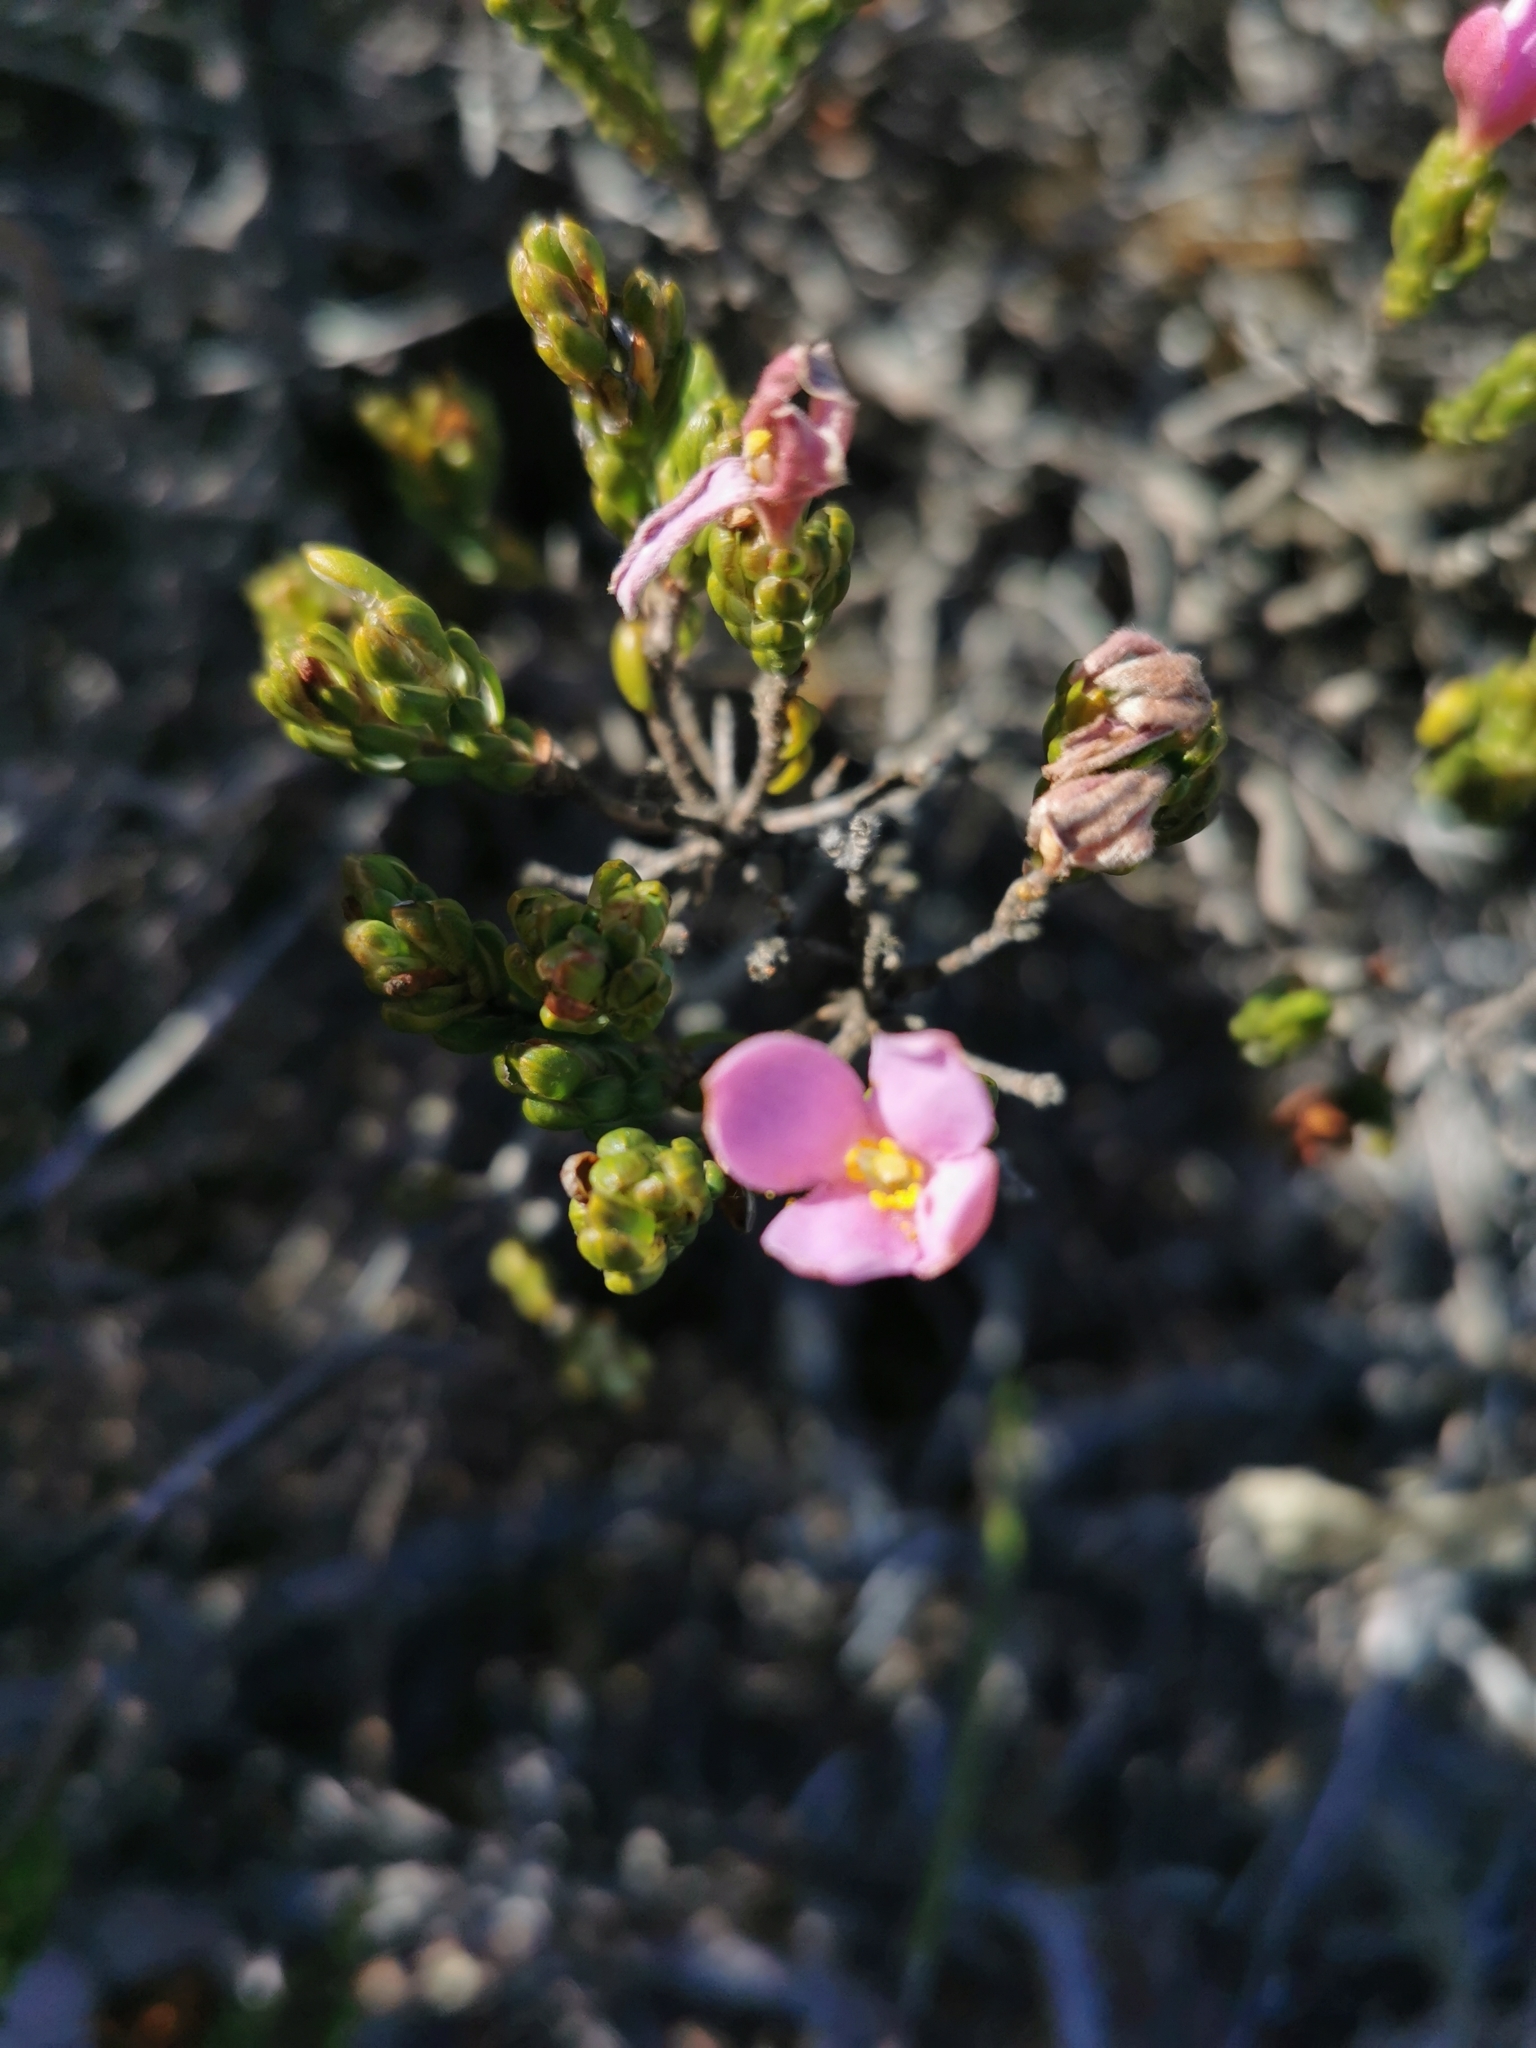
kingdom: Plantae
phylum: Tracheophyta
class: Magnoliopsida
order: Malvales
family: Thymelaeaceae
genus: Lachnaea
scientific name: Lachnaea grandiflora
